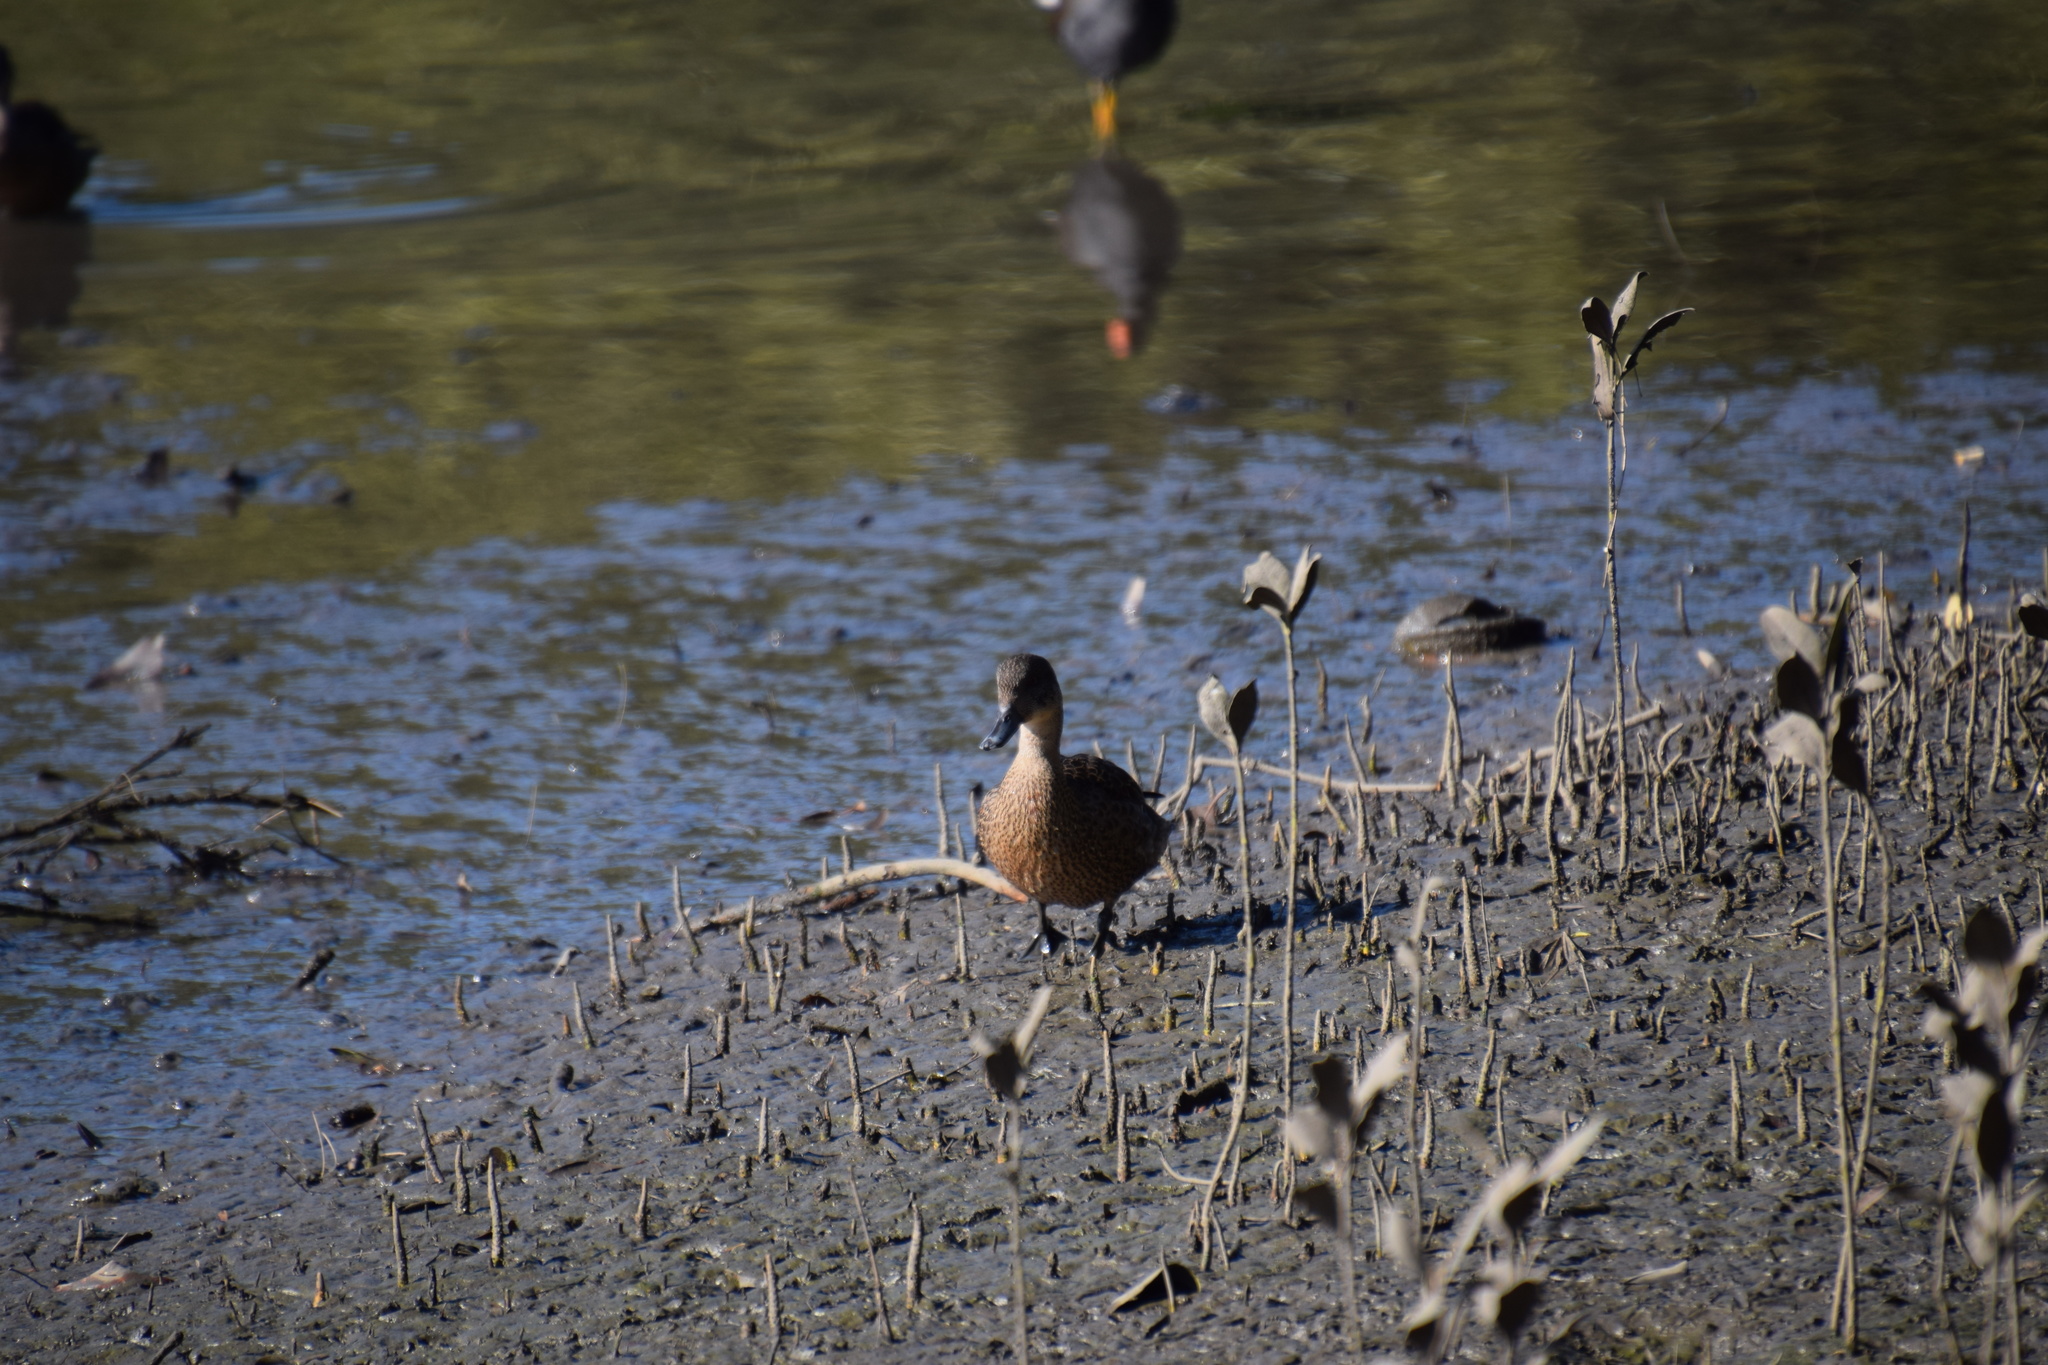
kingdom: Animalia
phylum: Chordata
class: Aves
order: Anseriformes
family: Anatidae
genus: Anas
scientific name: Anas castanea
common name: Chestnut teal
